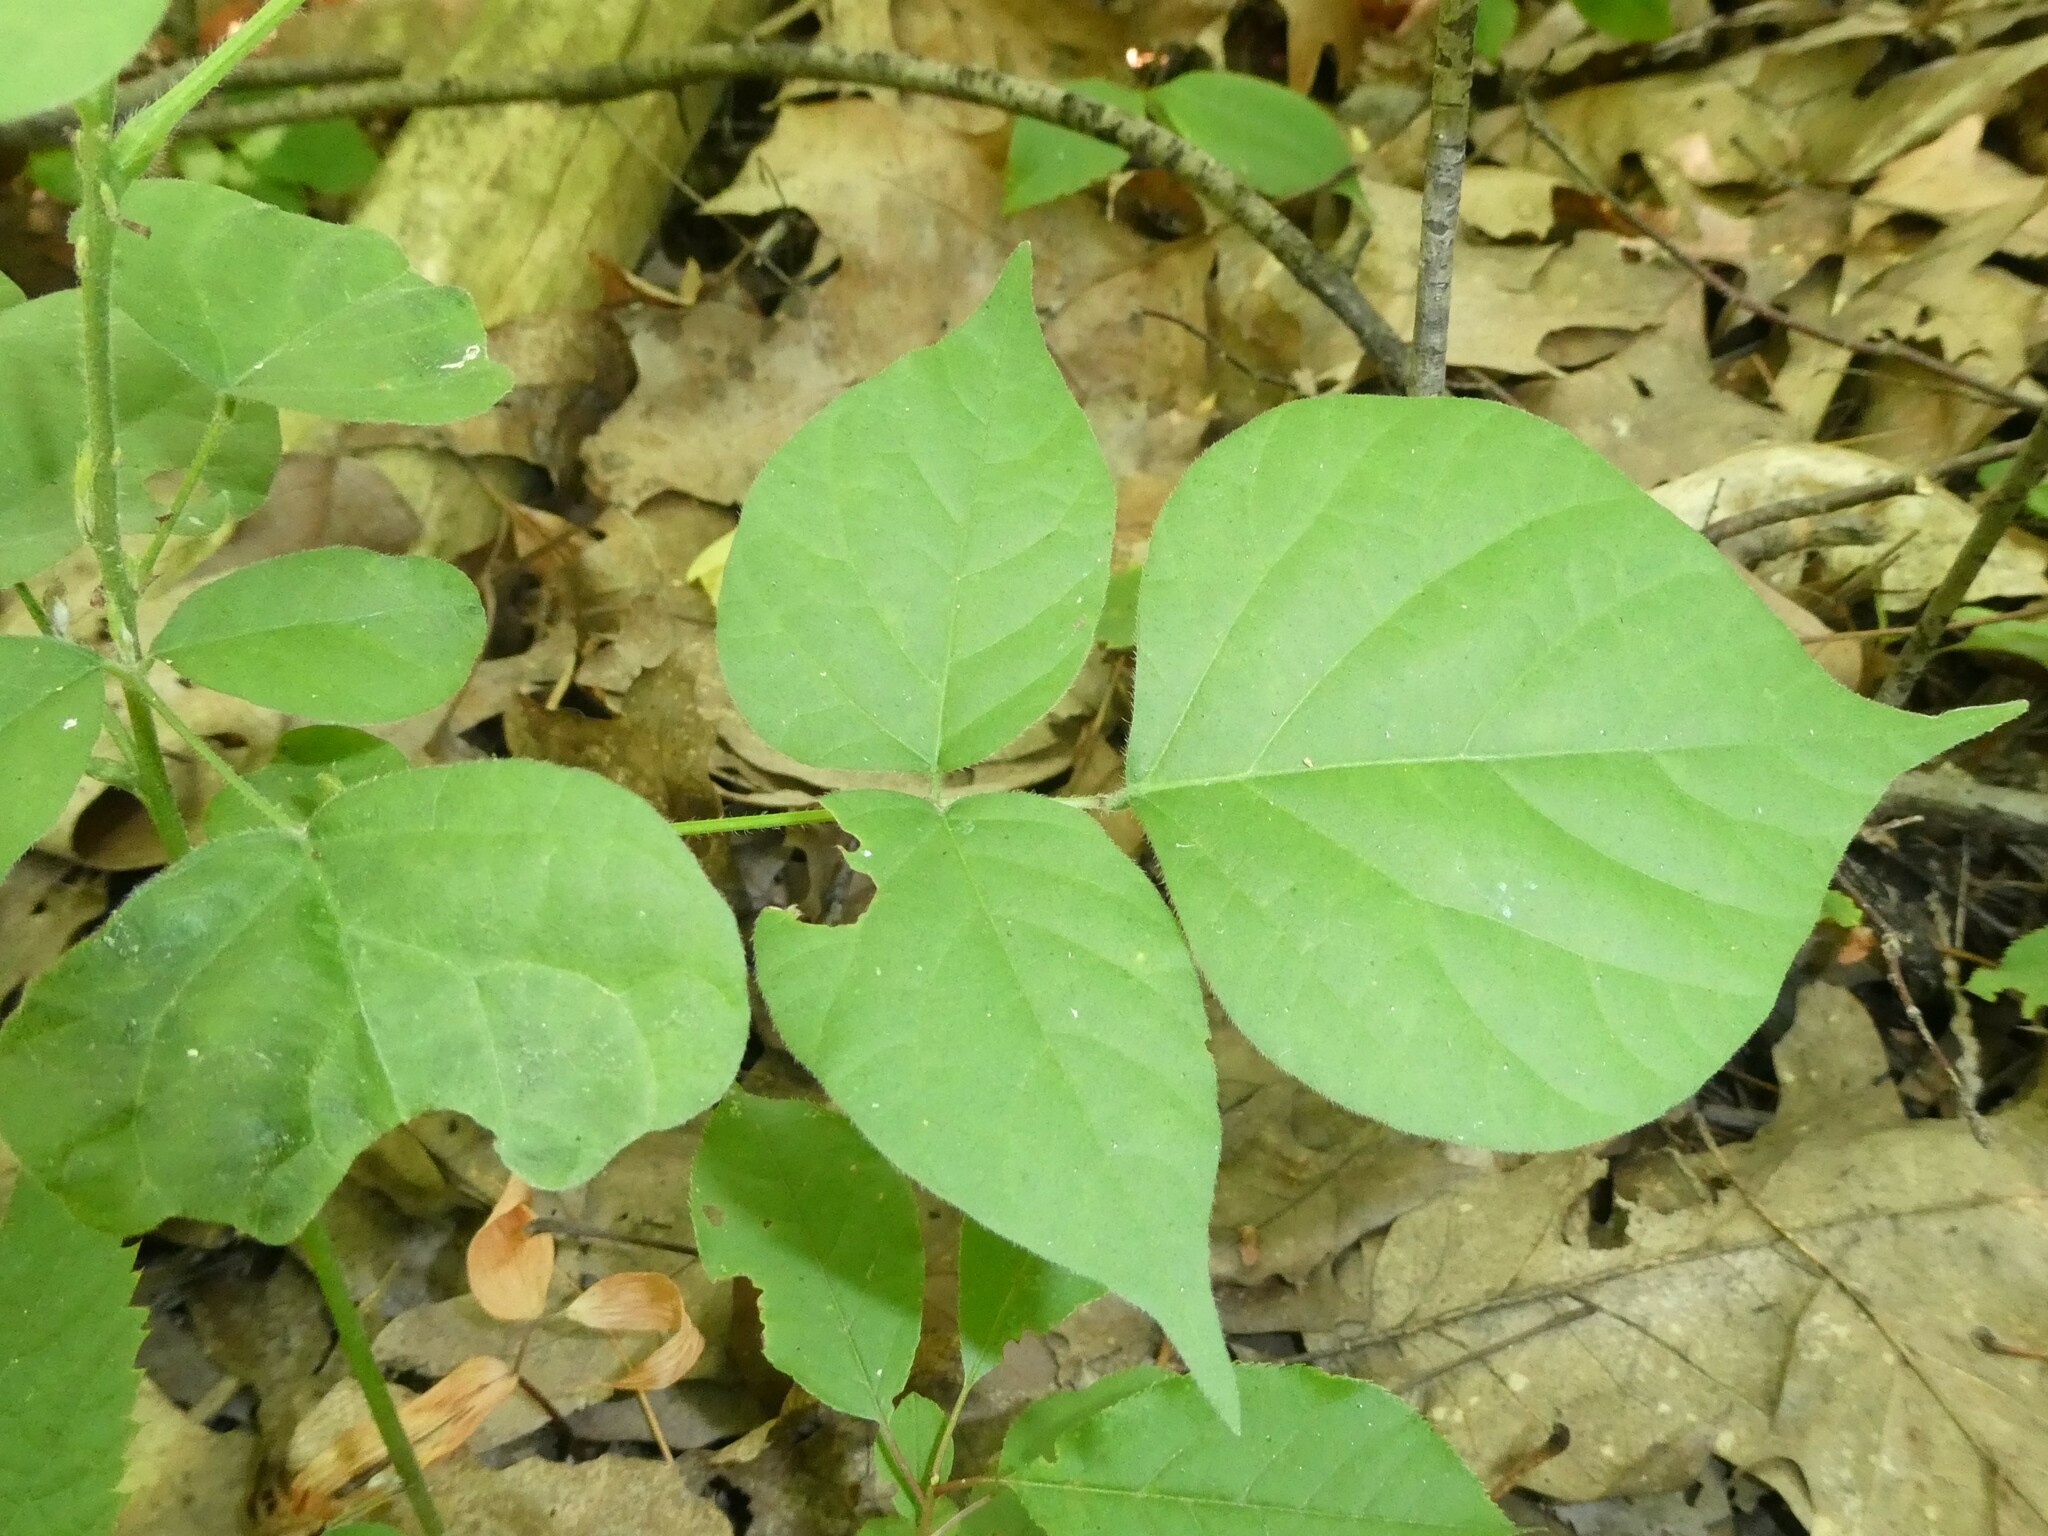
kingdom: Plantae
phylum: Tracheophyta
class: Magnoliopsida
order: Fabales
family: Fabaceae
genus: Hylodesmum
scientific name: Hylodesmum glutinosum
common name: Clustered-leaved tick-trefoil
